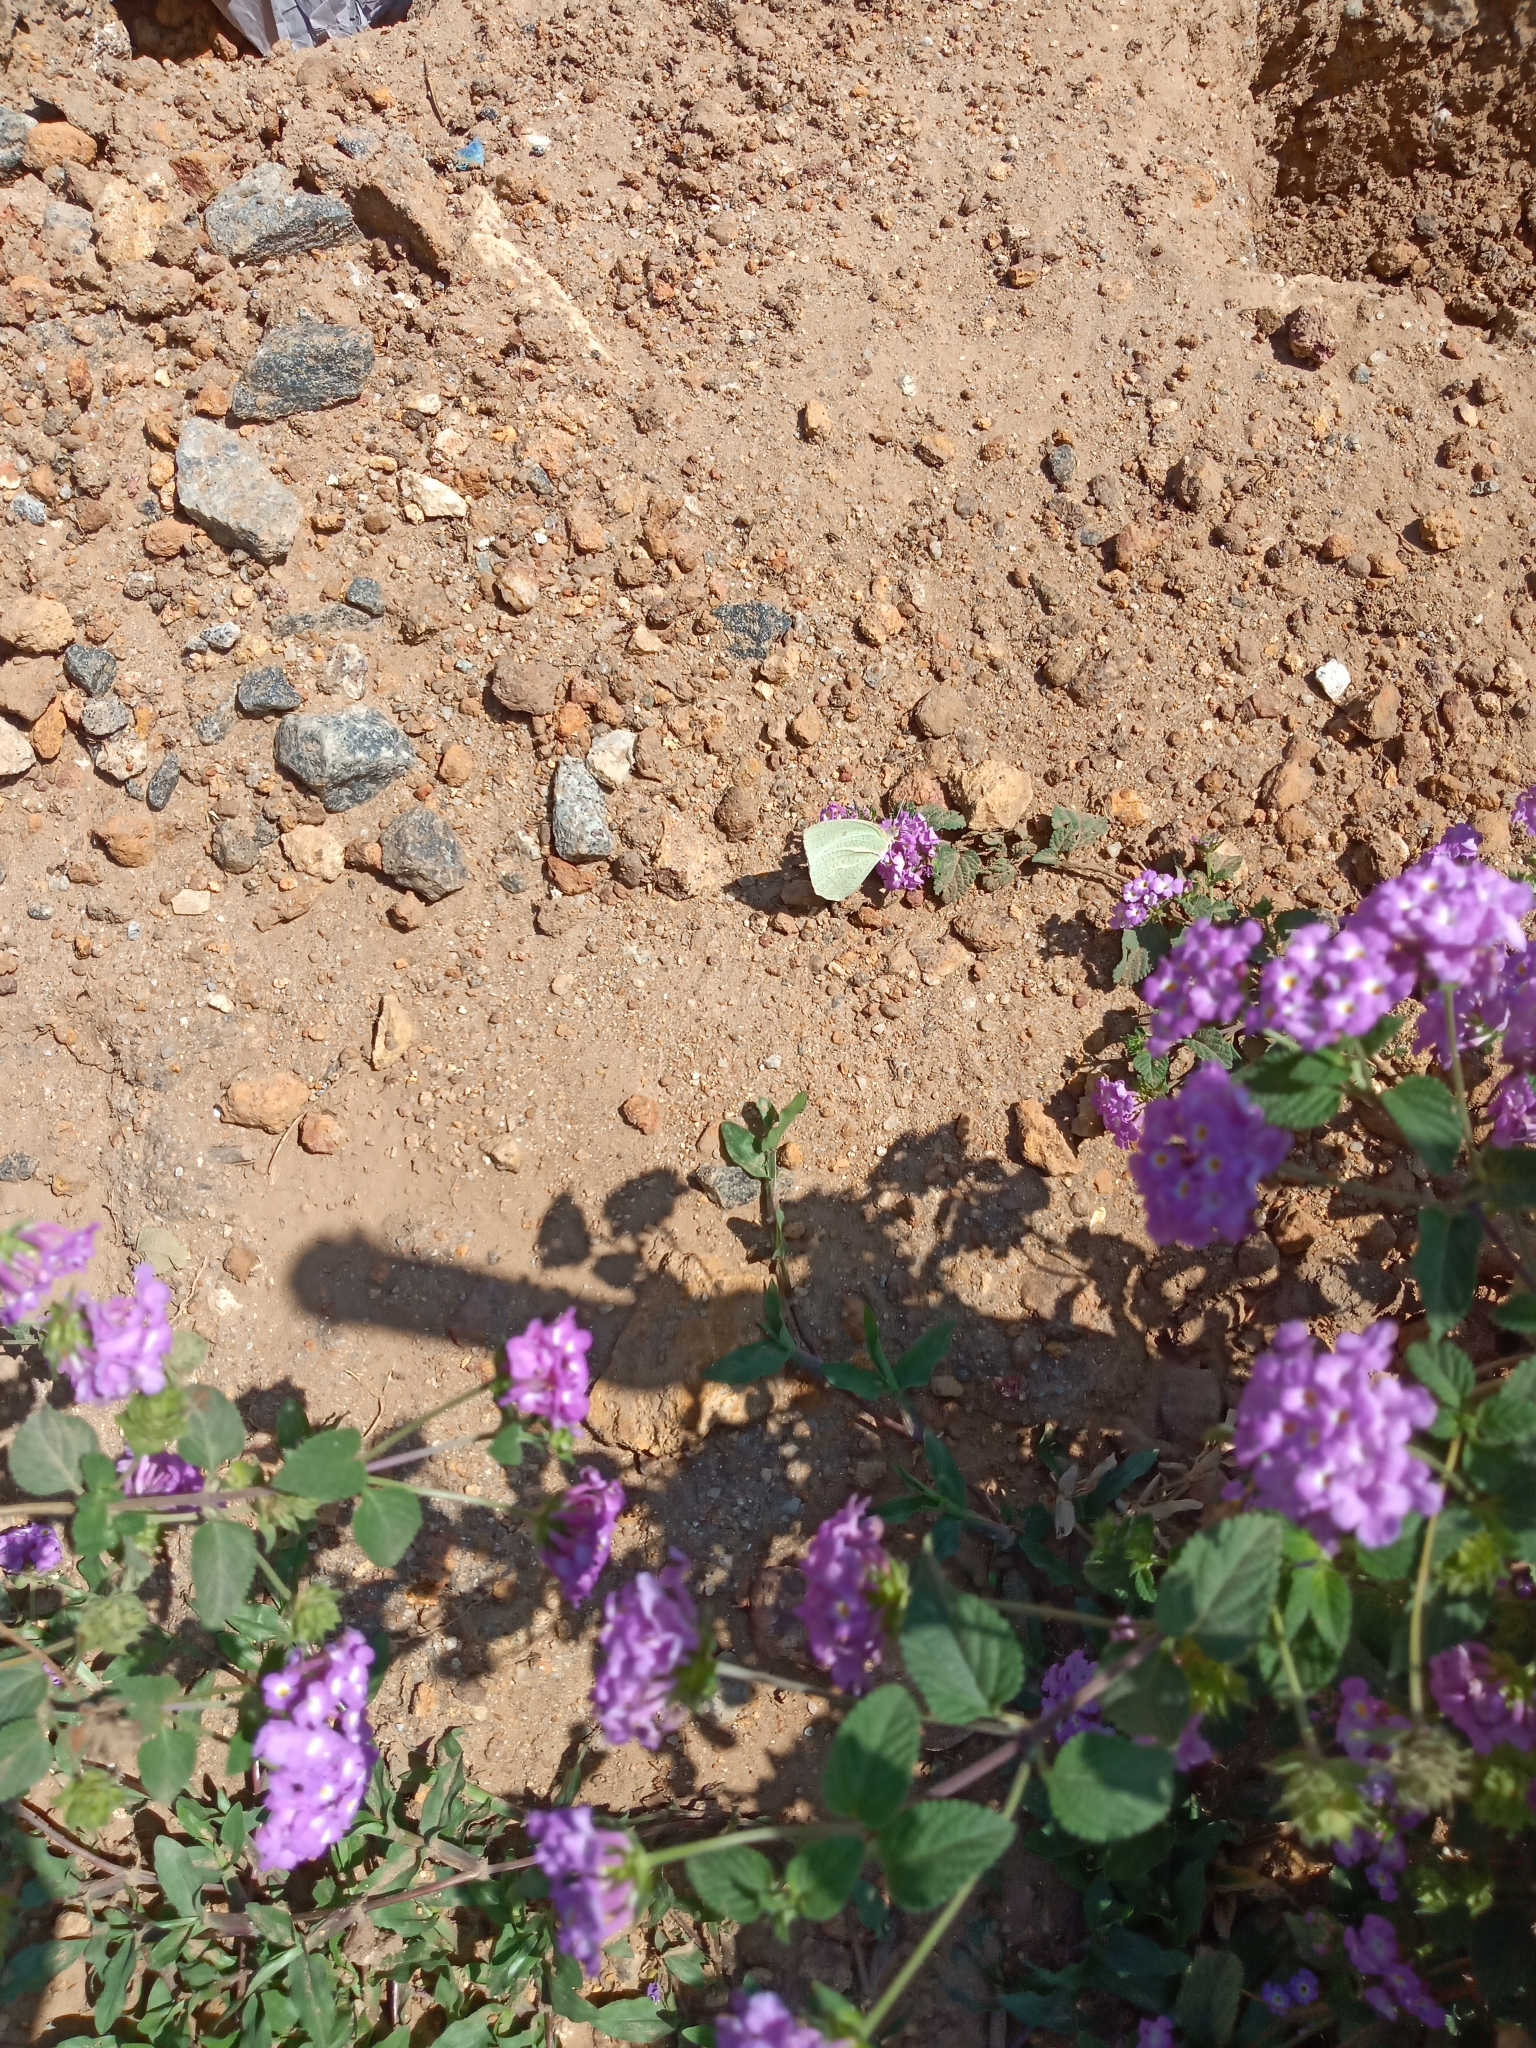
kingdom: Animalia
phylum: Arthropoda
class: Insecta
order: Lepidoptera
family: Pieridae
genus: Catopsilia
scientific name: Catopsilia pyranthe
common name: Mottled emigrant
